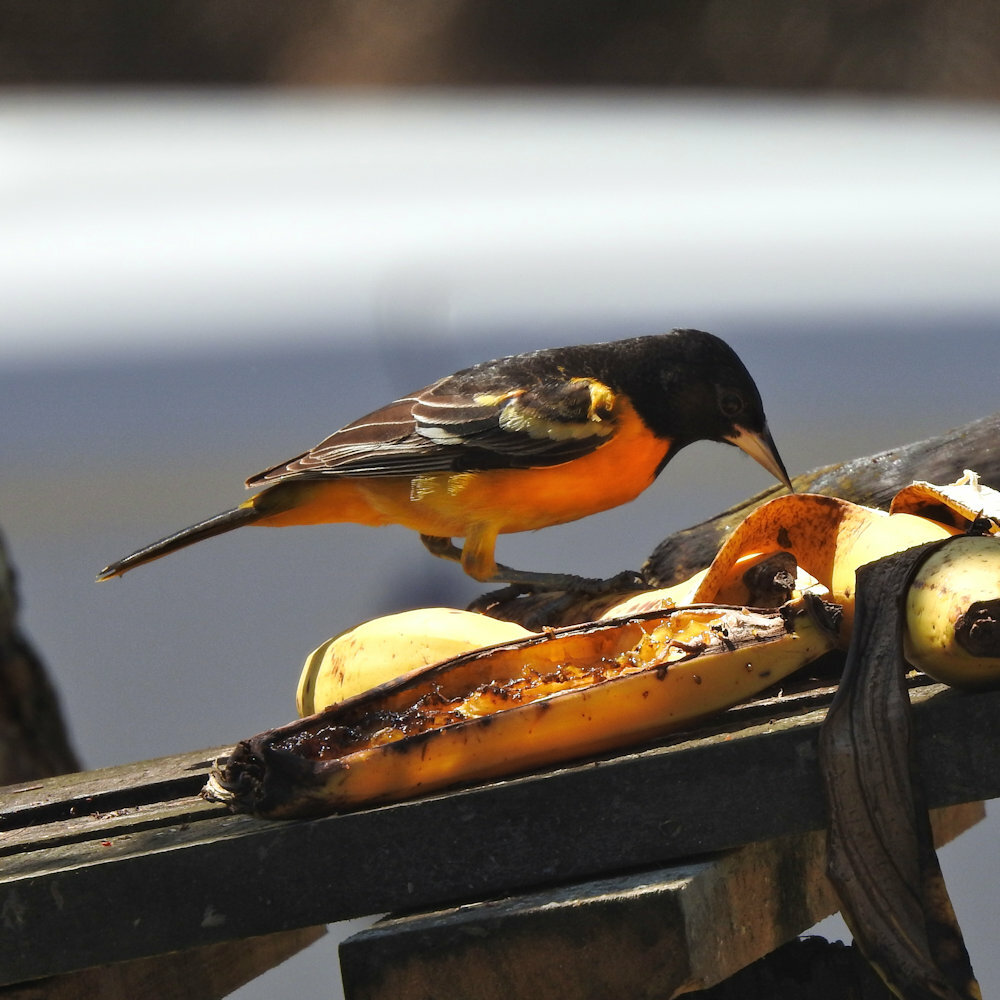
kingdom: Animalia
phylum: Chordata
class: Aves
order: Passeriformes
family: Icteridae
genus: Icterus
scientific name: Icterus galbula
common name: Baltimore oriole
